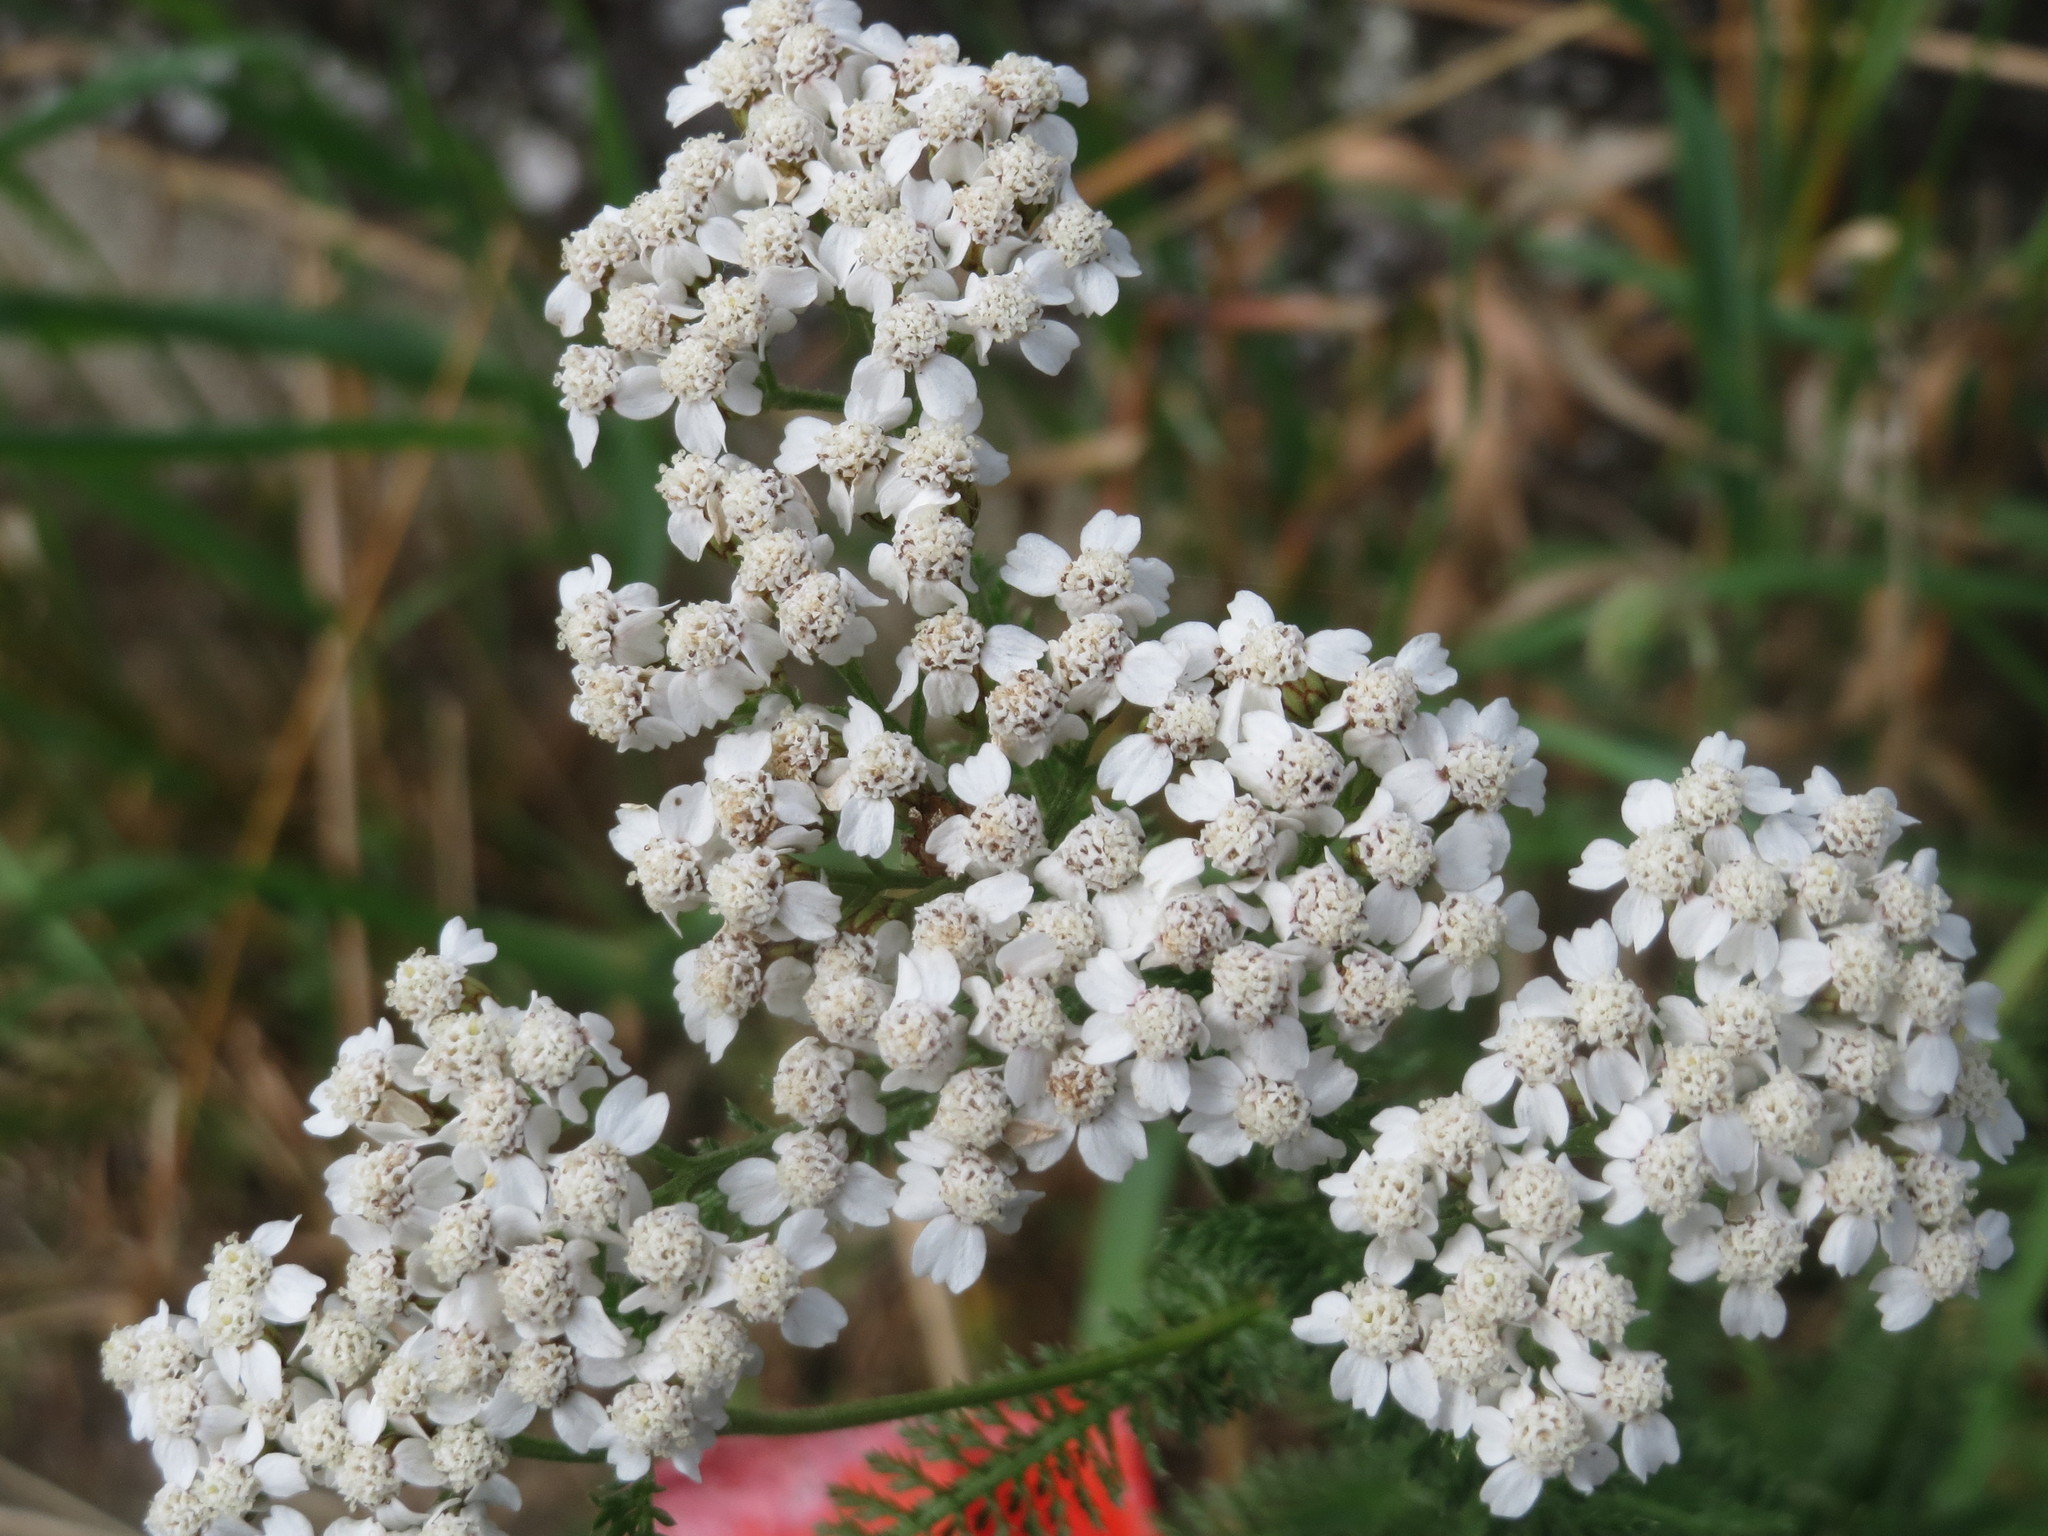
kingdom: Plantae
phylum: Tracheophyta
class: Magnoliopsida
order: Asterales
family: Asteraceae
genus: Achillea
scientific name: Achillea millefolium
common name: Yarrow
